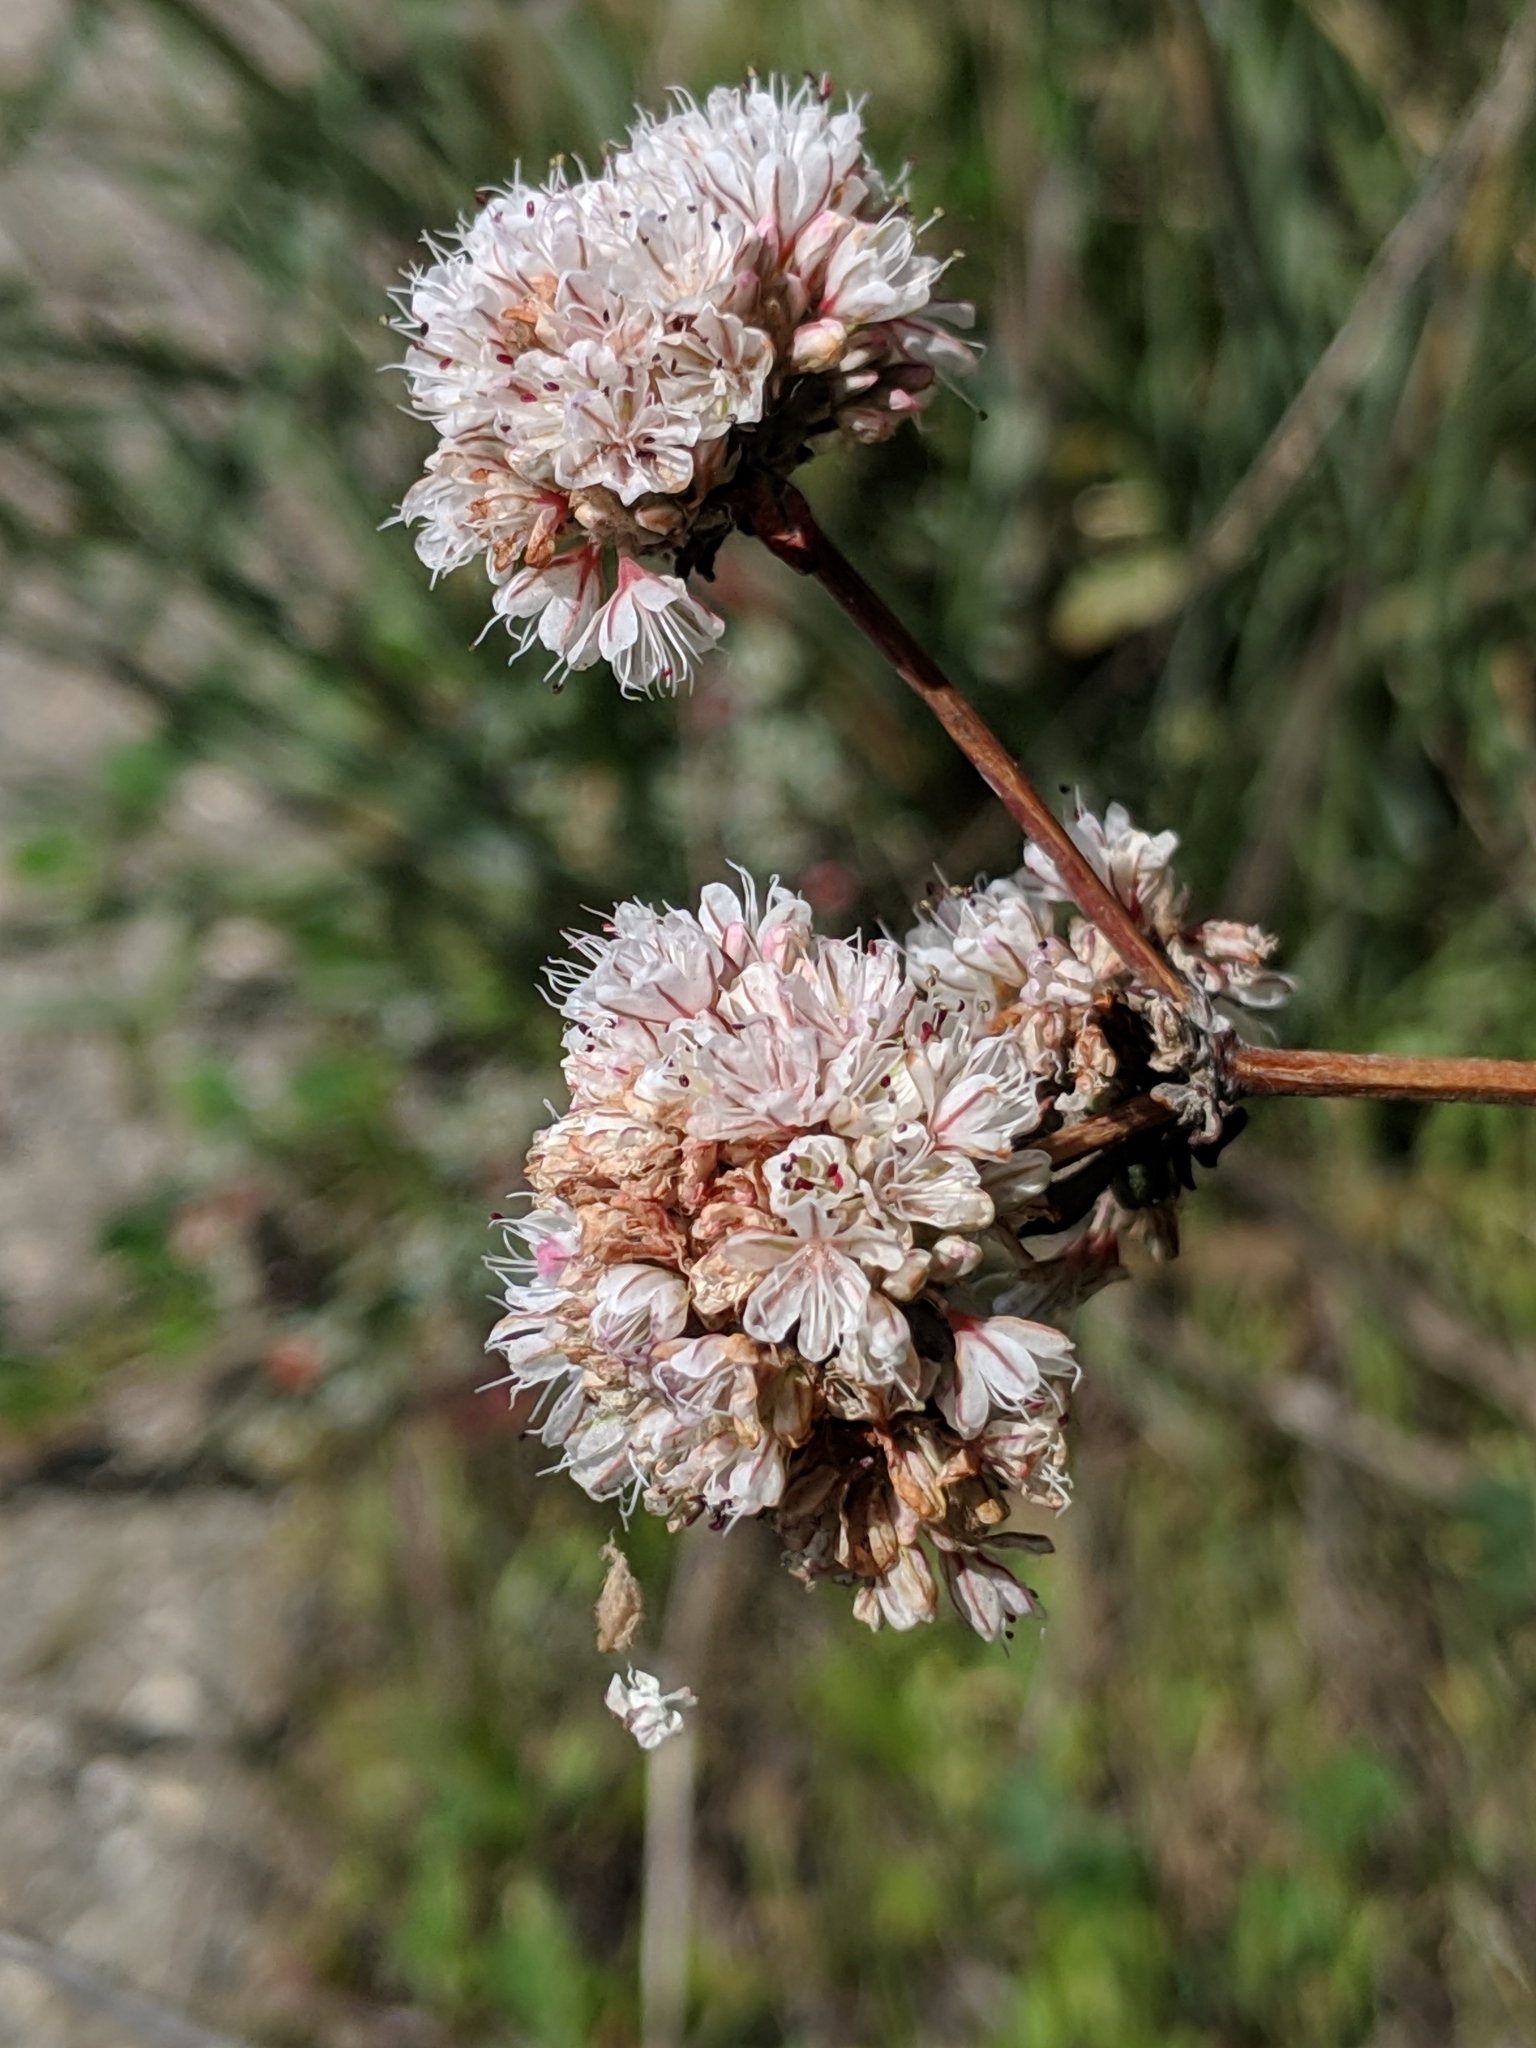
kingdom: Plantae
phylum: Tracheophyta
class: Magnoliopsida
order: Caryophyllales
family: Polygonaceae
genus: Eriogonum
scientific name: Eriogonum parvifolium
